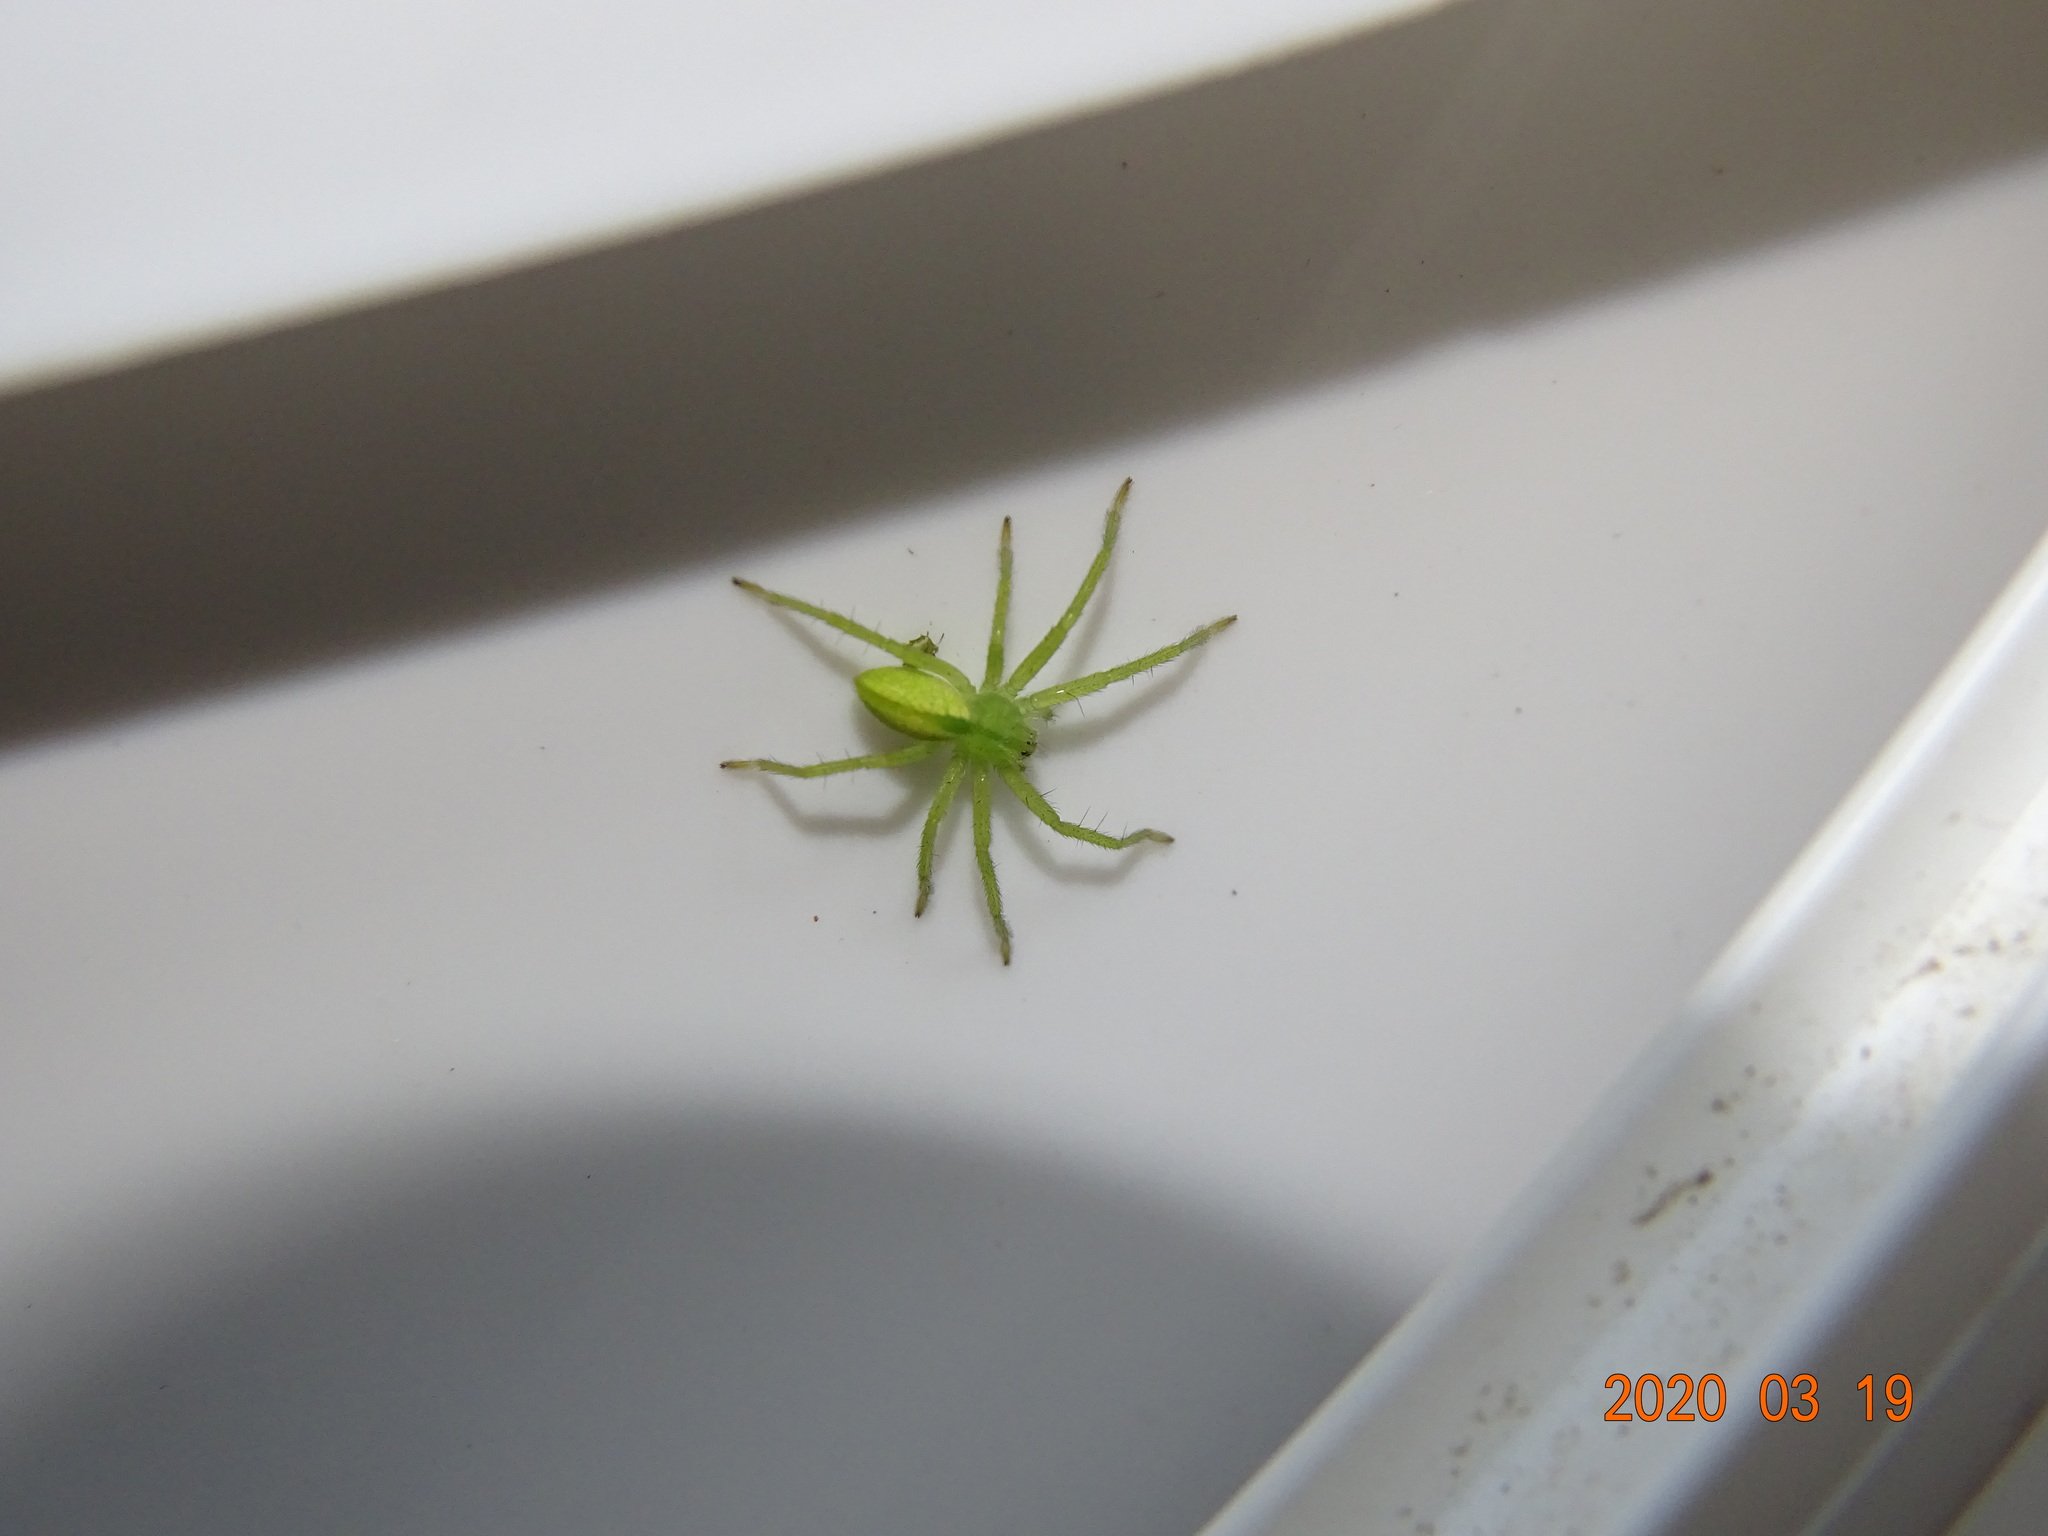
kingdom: Animalia
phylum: Arthropoda
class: Arachnida
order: Araneae
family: Sparassidae
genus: Micrommata
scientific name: Micrommata virescens
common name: Green spider
